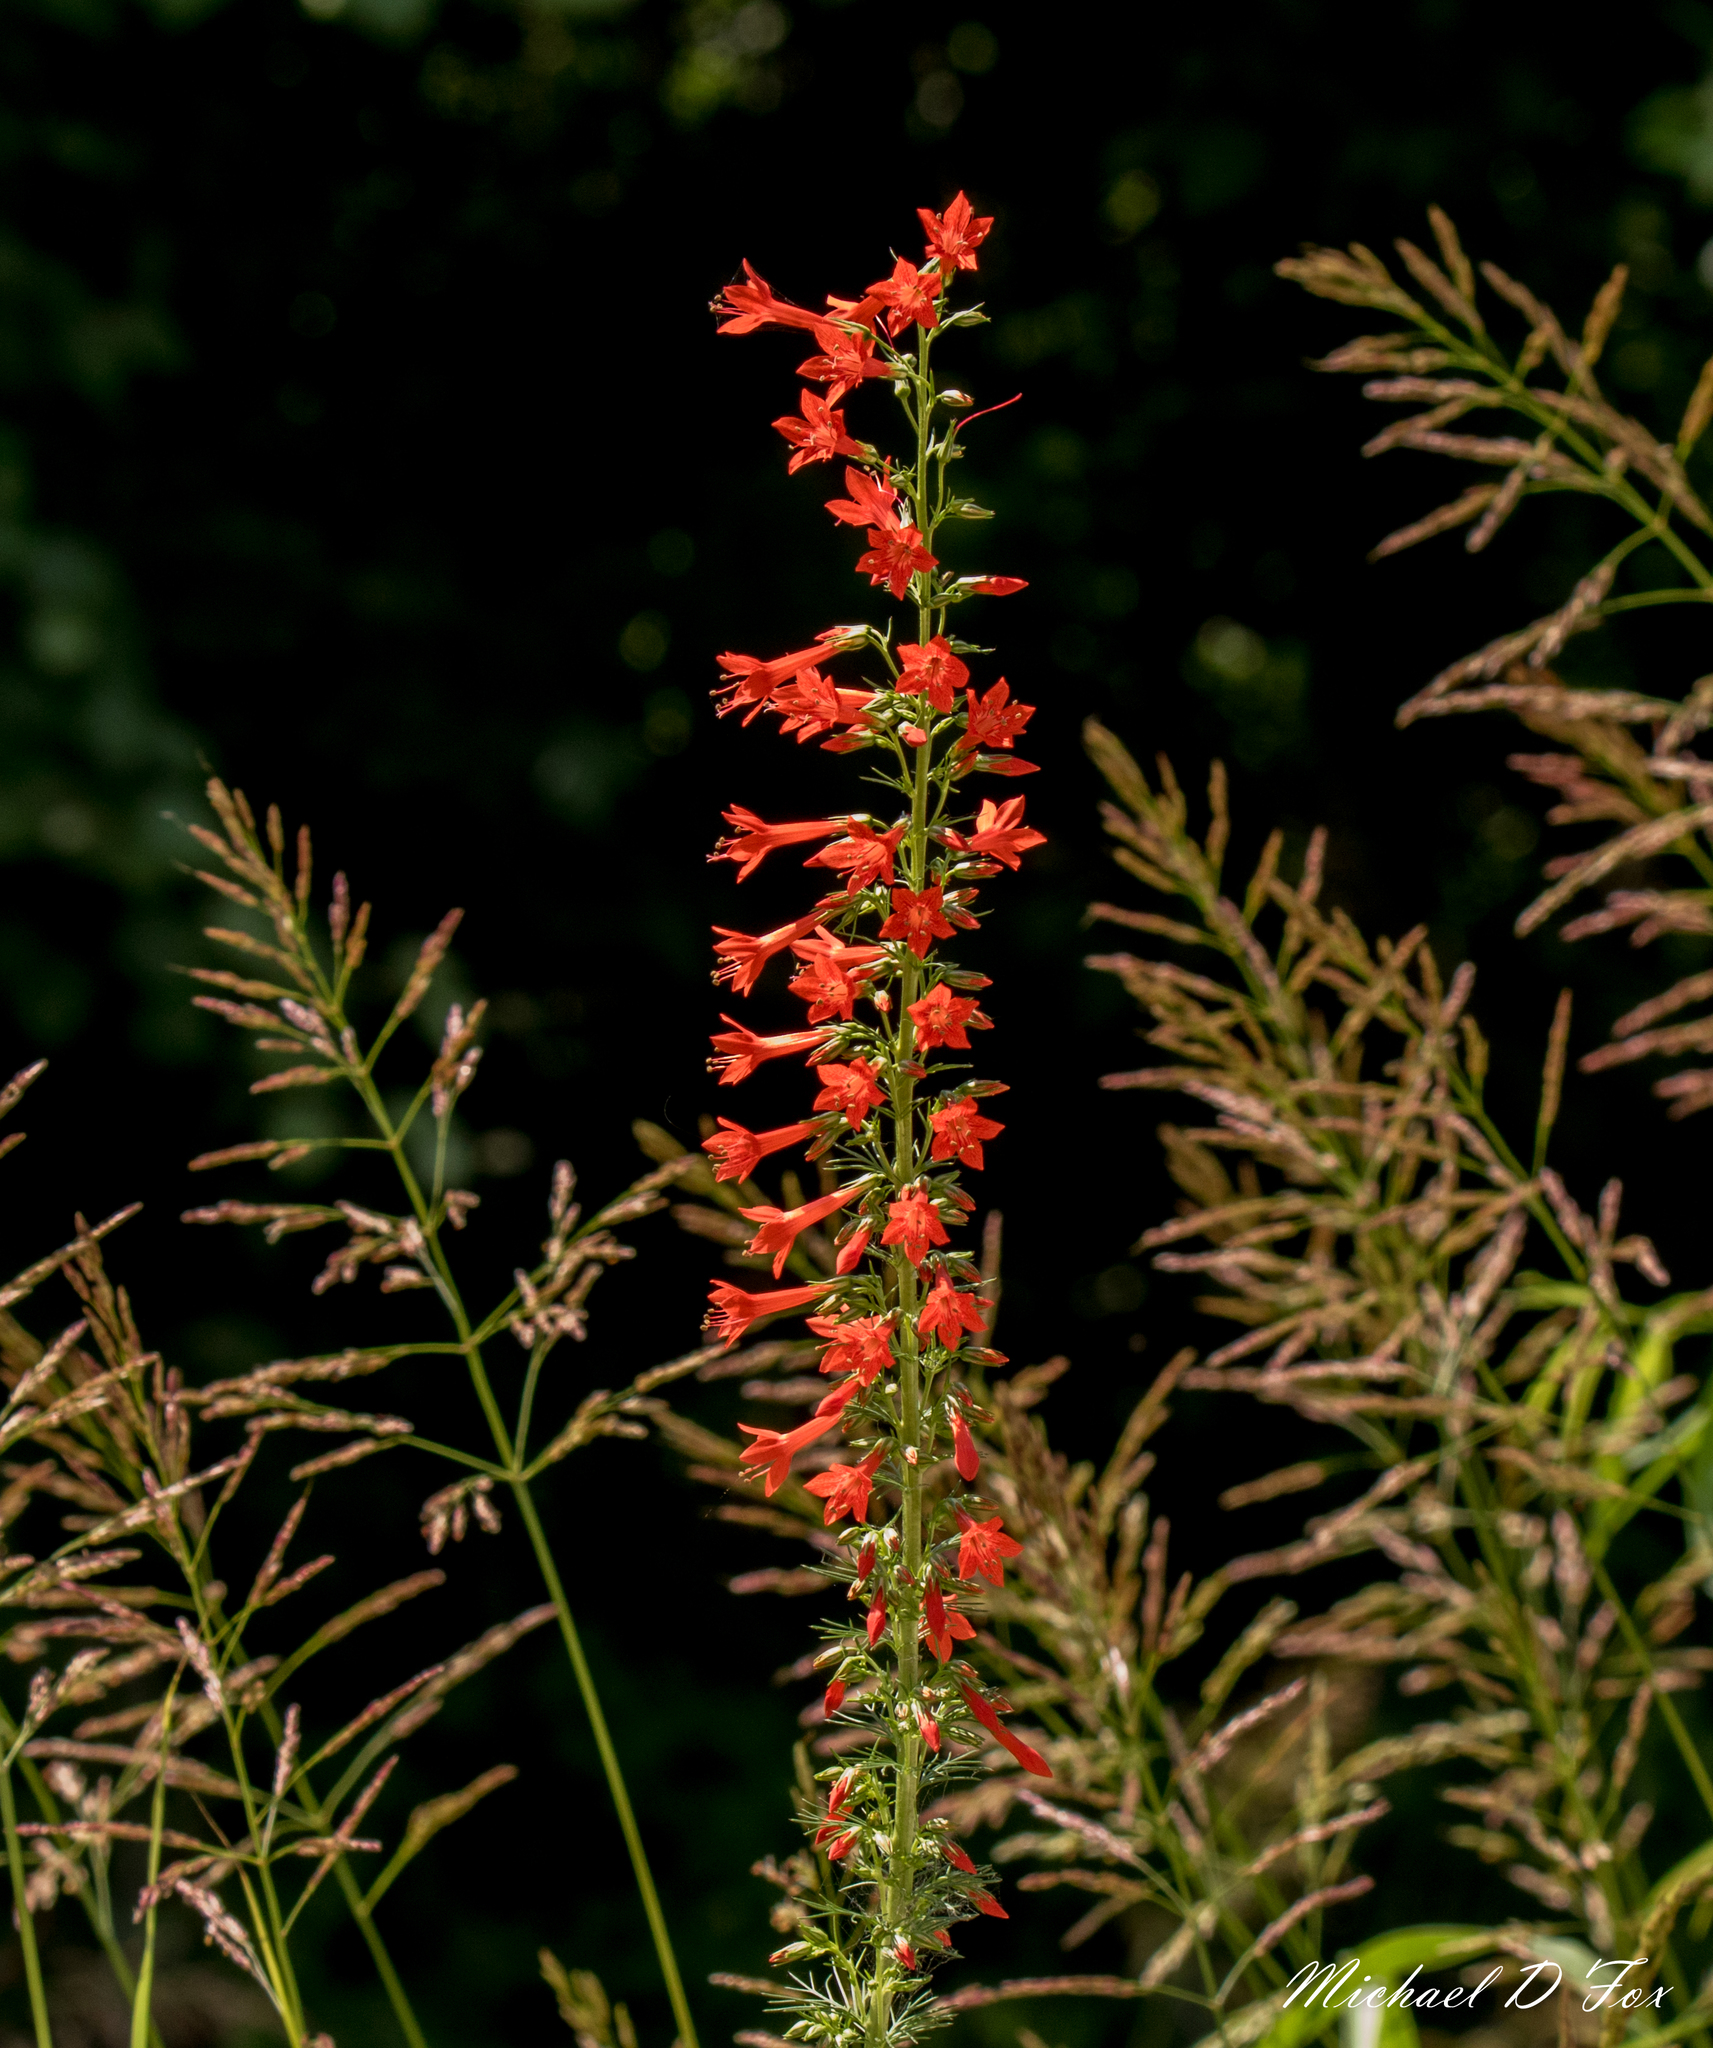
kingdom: Plantae
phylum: Tracheophyta
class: Magnoliopsida
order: Ericales
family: Polemoniaceae
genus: Ipomopsis
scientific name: Ipomopsis rubra
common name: Skyrocket
